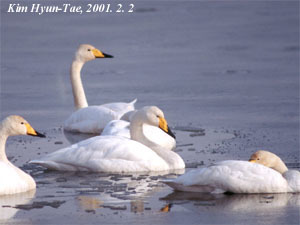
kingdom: Animalia
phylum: Chordata
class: Aves
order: Anseriformes
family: Anatidae
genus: Cygnus
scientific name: Cygnus cygnus
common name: Whooper swan
